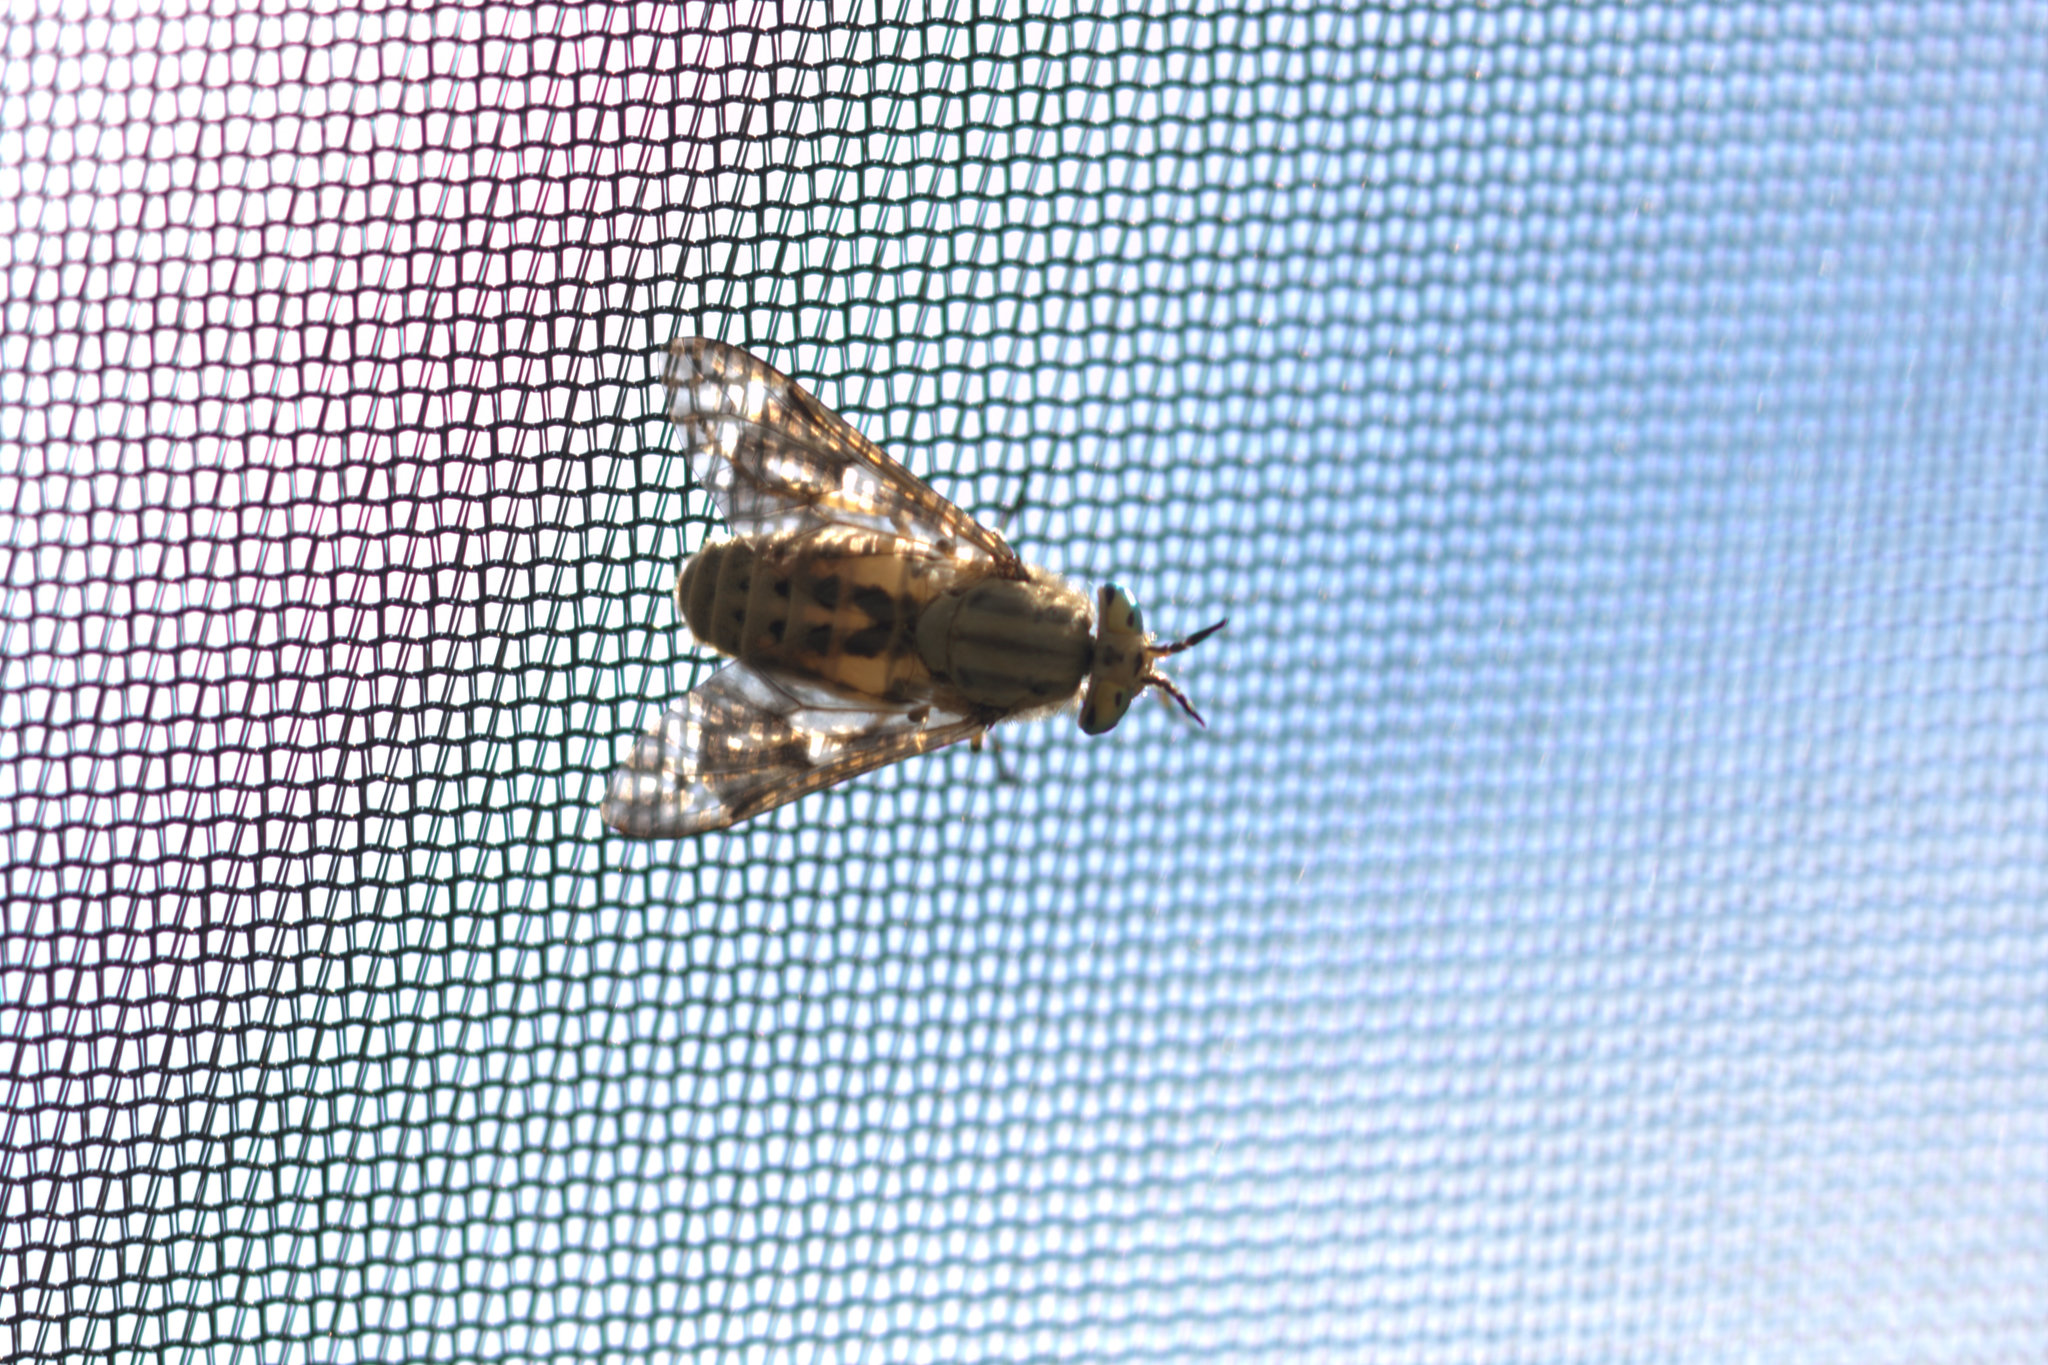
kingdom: Animalia
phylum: Arthropoda
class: Insecta
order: Diptera
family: Tabanidae
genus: Chrysops
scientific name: Chrysops discalis
